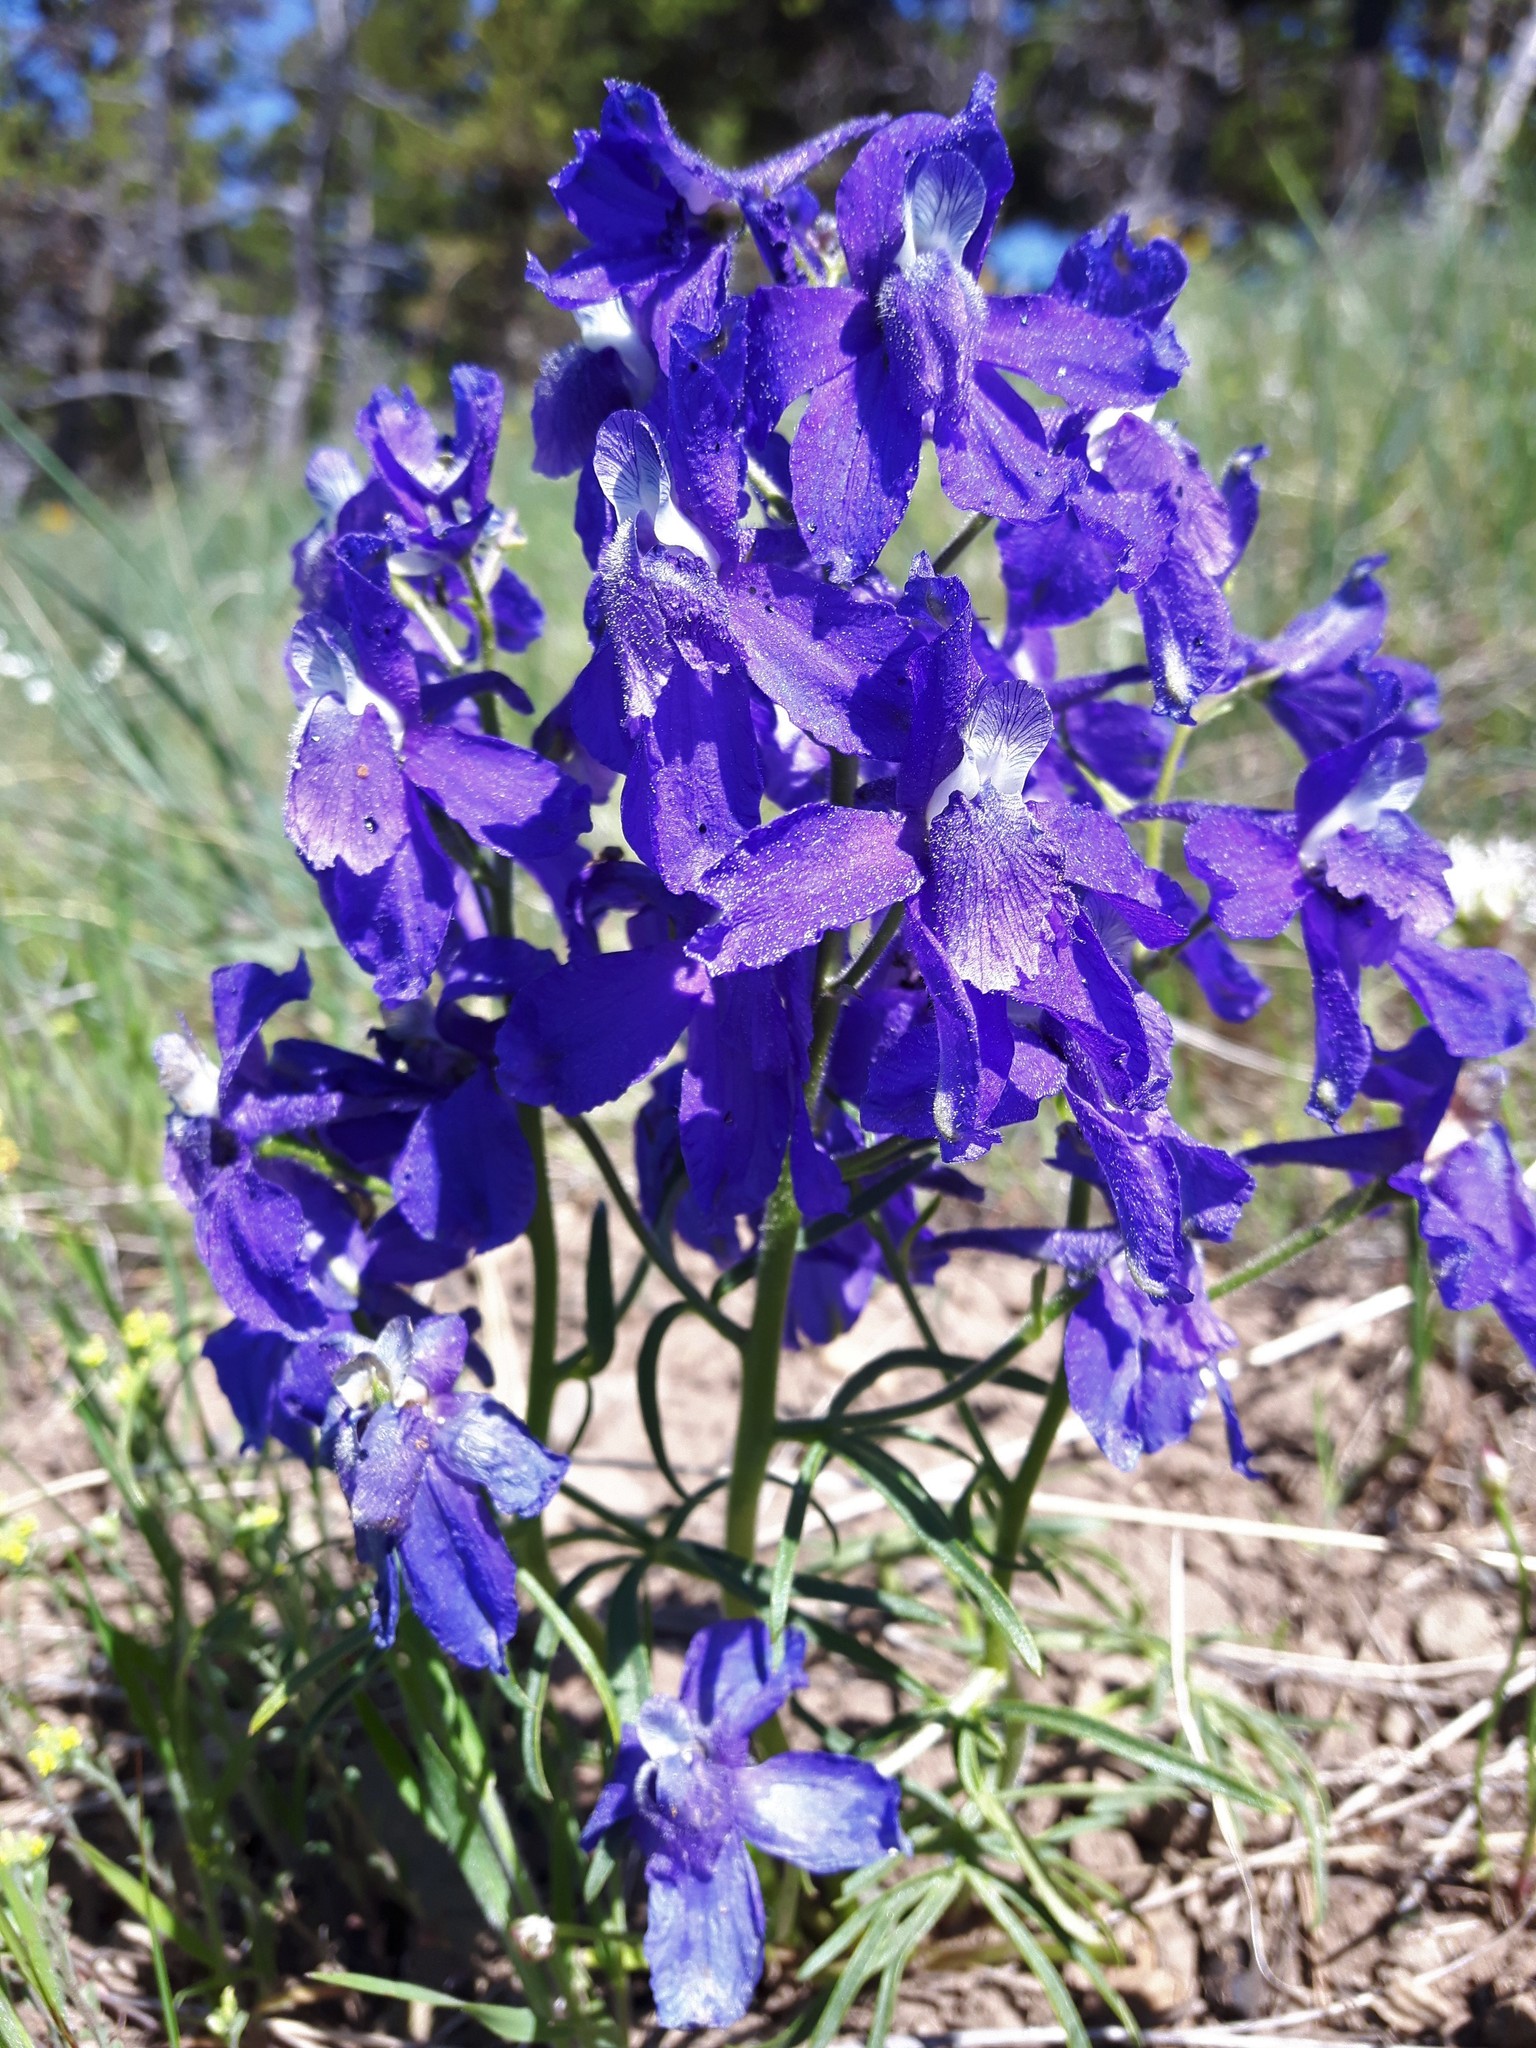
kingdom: Plantae
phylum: Tracheophyta
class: Magnoliopsida
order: Ranunculales
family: Ranunculaceae
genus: Delphinium
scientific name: Delphinium bicolor
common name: Low larkspur
